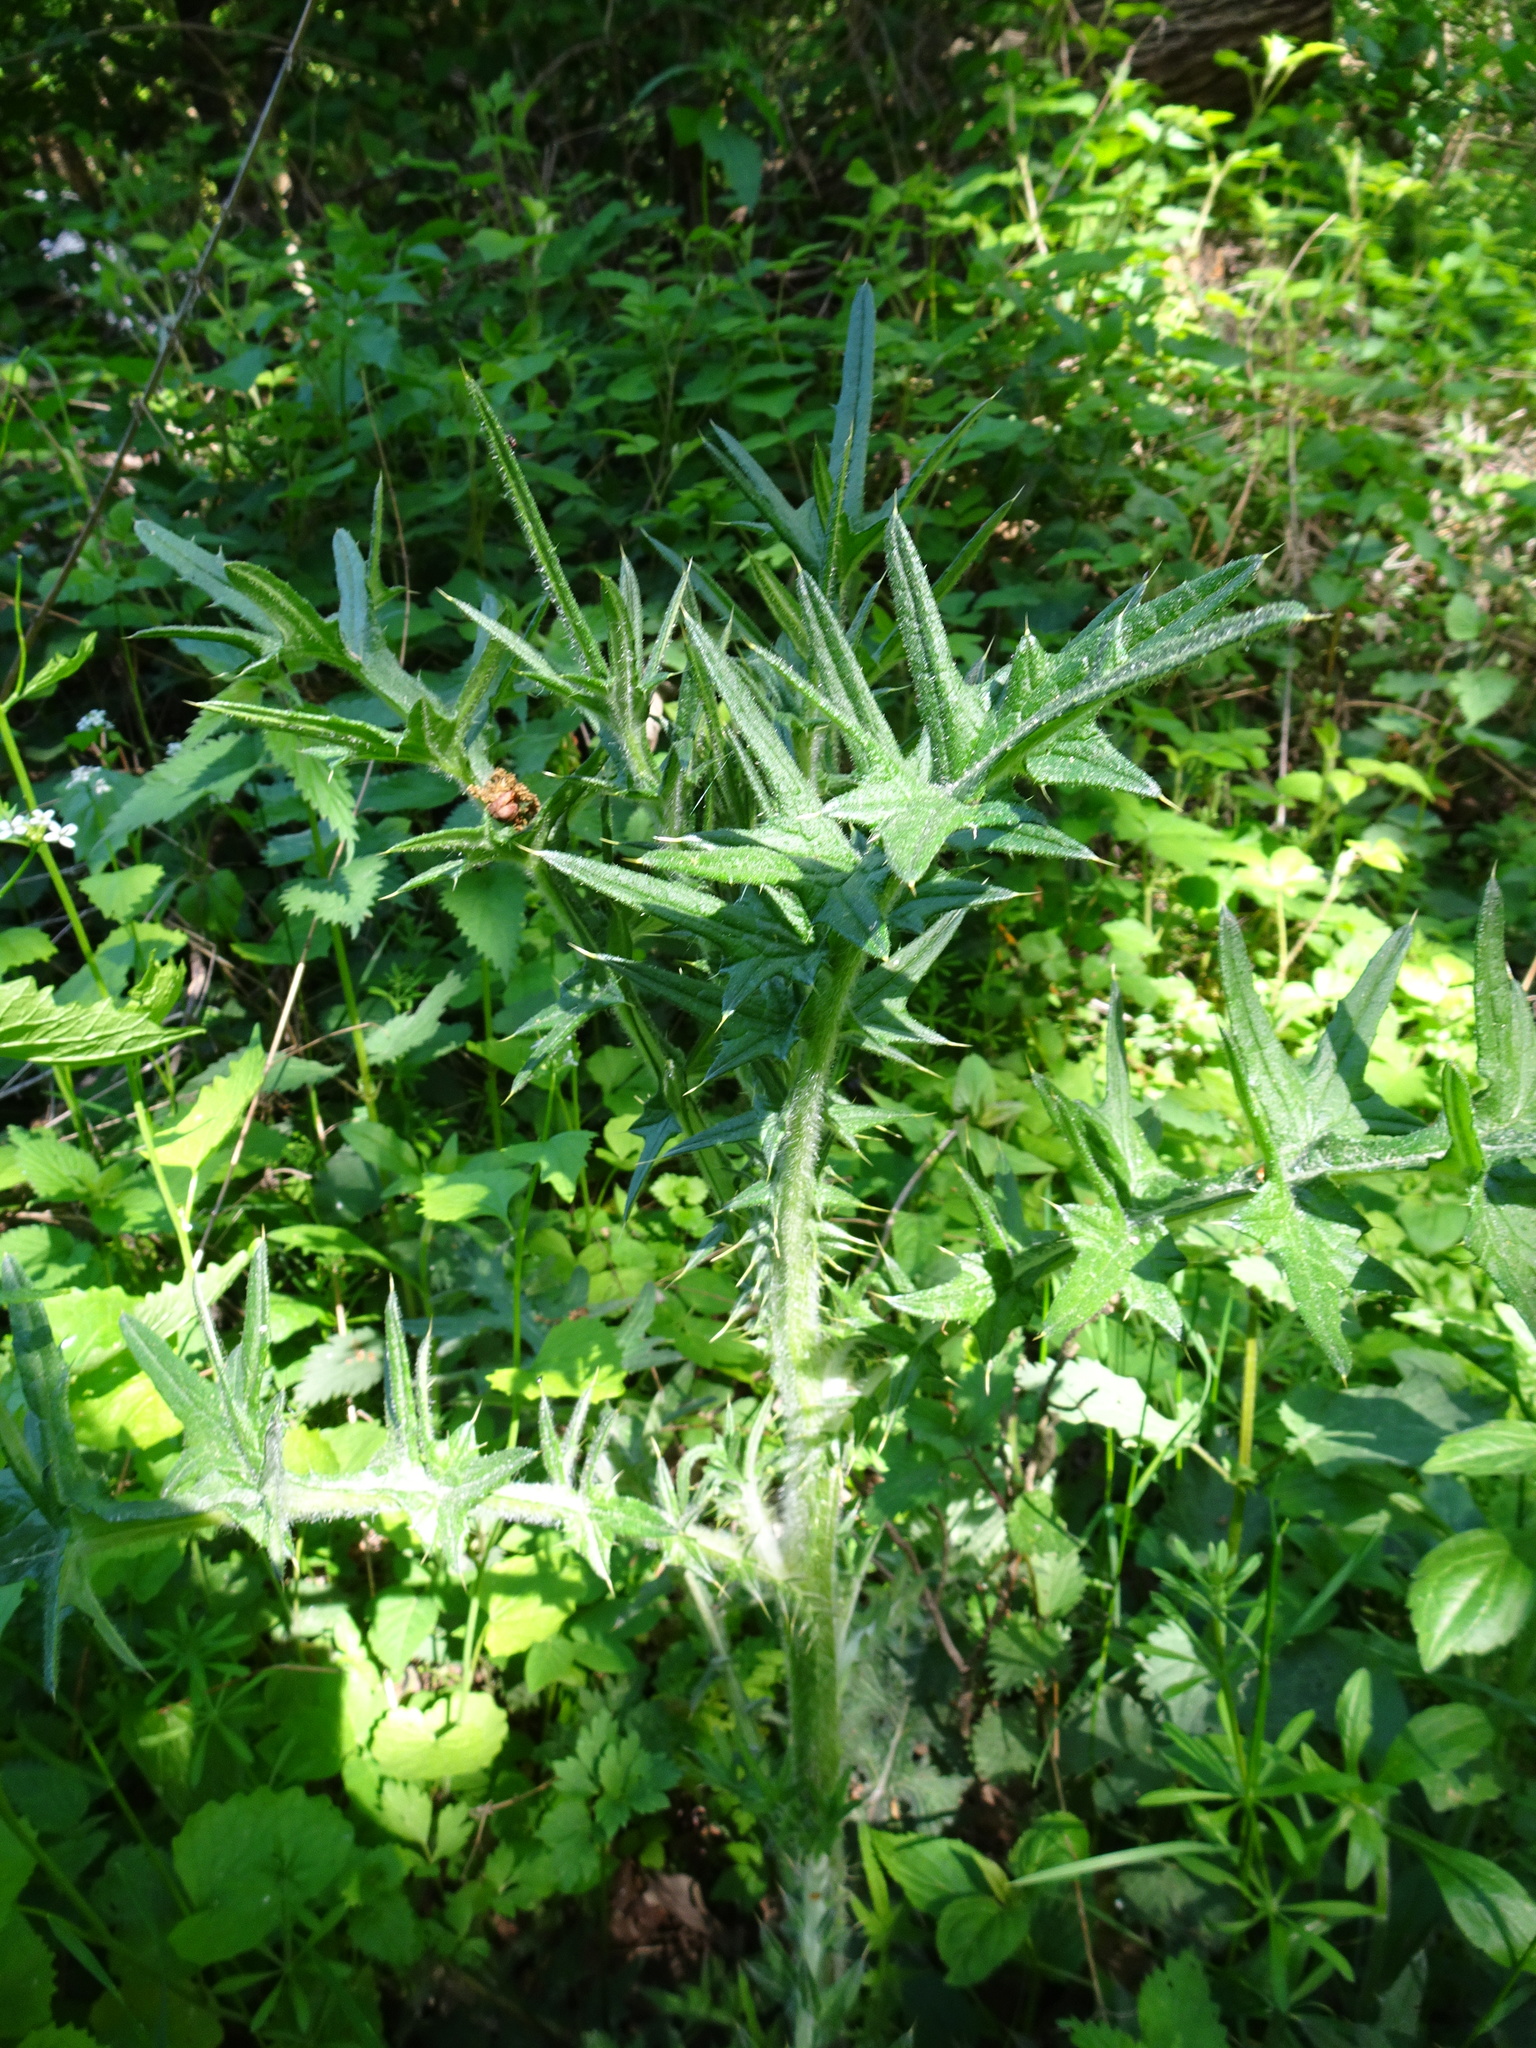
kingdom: Plantae
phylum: Tracheophyta
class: Magnoliopsida
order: Asterales
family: Asteraceae
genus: Cirsium
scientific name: Cirsium vulgare
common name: Bull thistle
